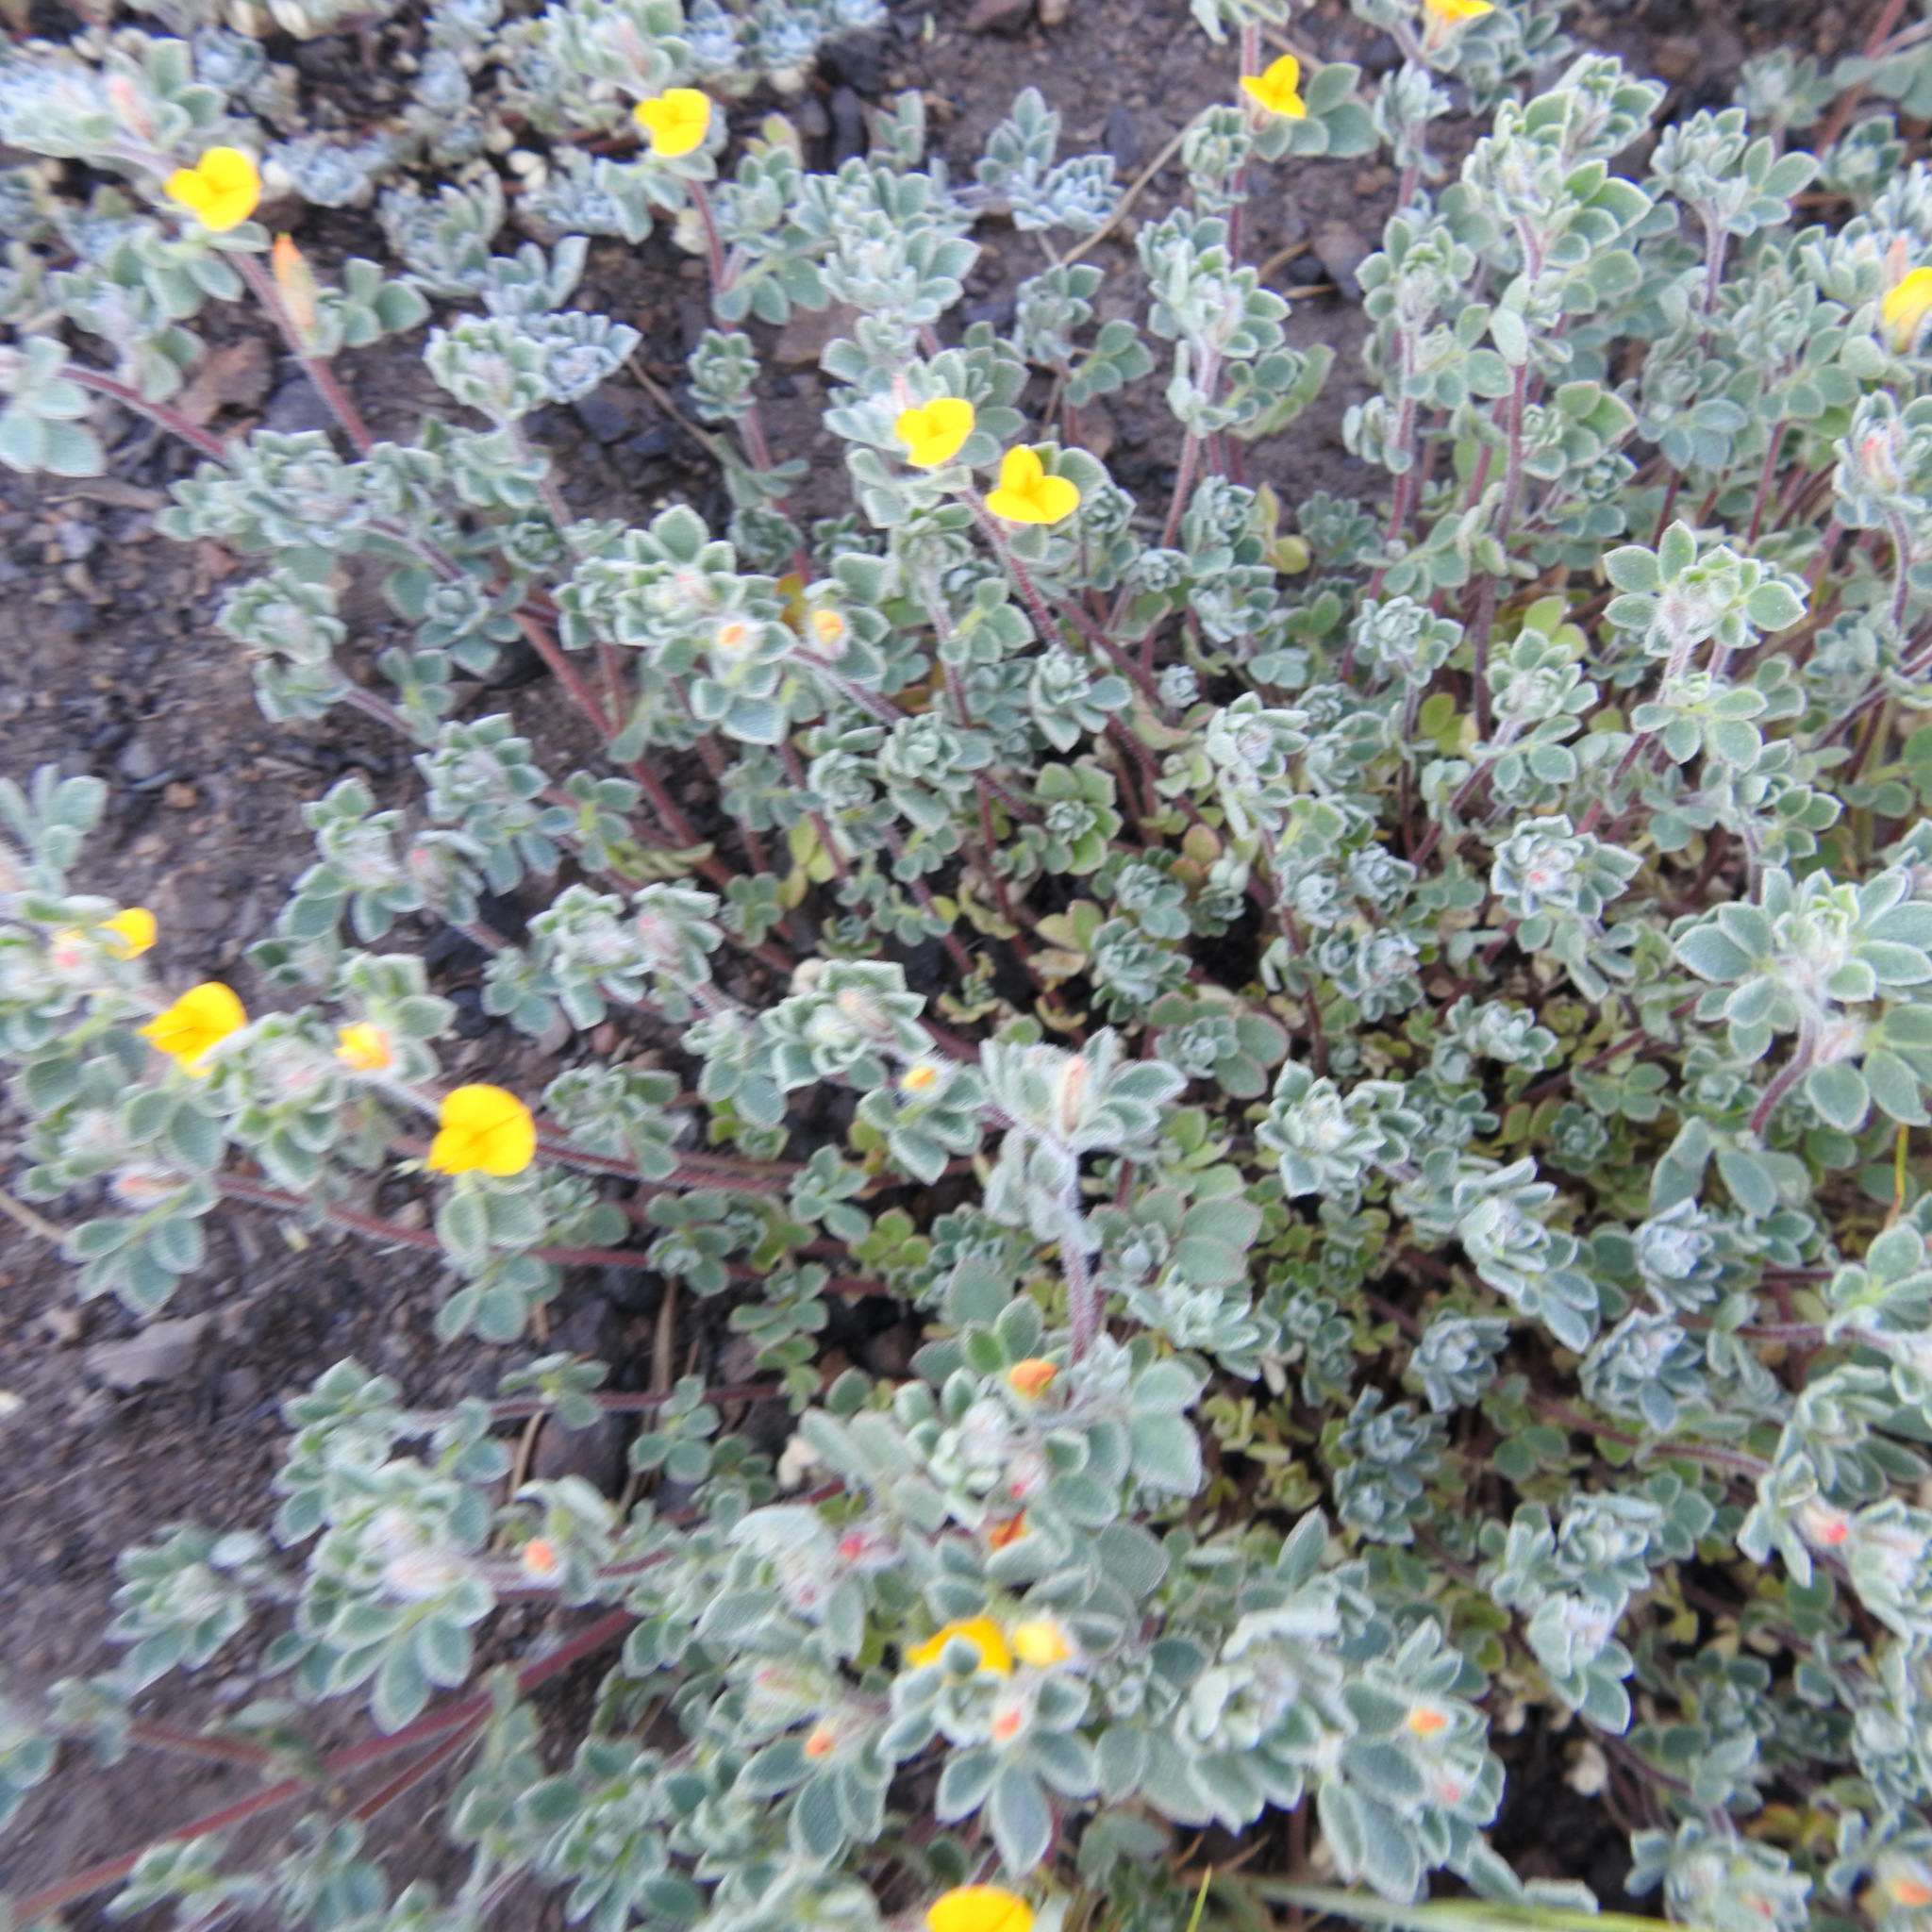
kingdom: Plantae
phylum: Tracheophyta
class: Magnoliopsida
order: Fabales
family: Fabaceae
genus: Acmispon
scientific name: Acmispon brachycarpus
